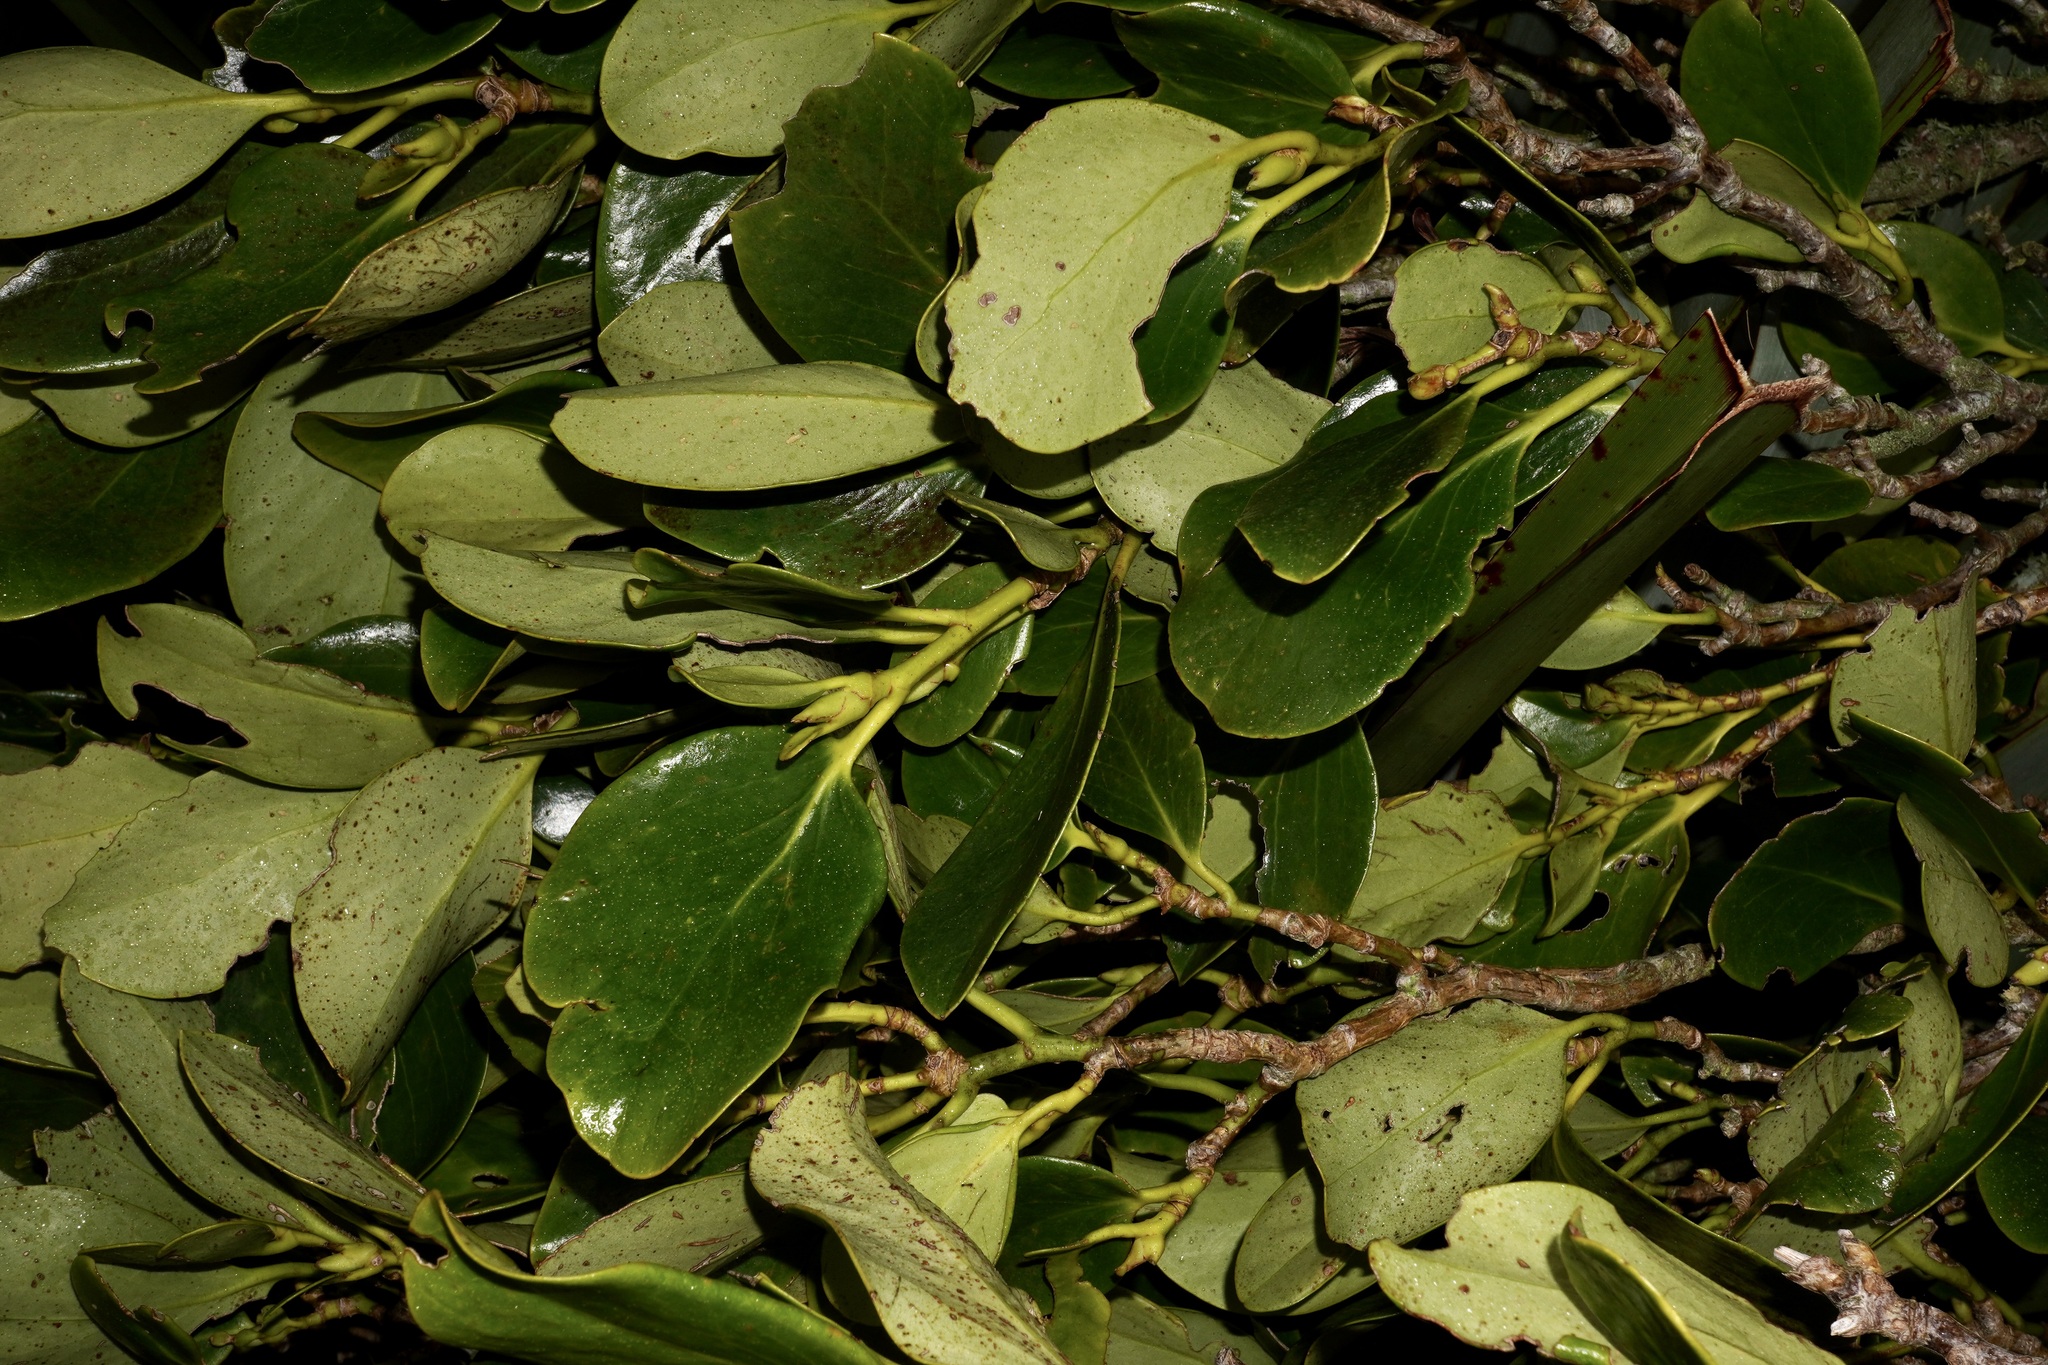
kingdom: Plantae
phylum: Tracheophyta
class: Magnoliopsida
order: Apiales
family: Griseliniaceae
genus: Griselinia
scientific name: Griselinia lucida
